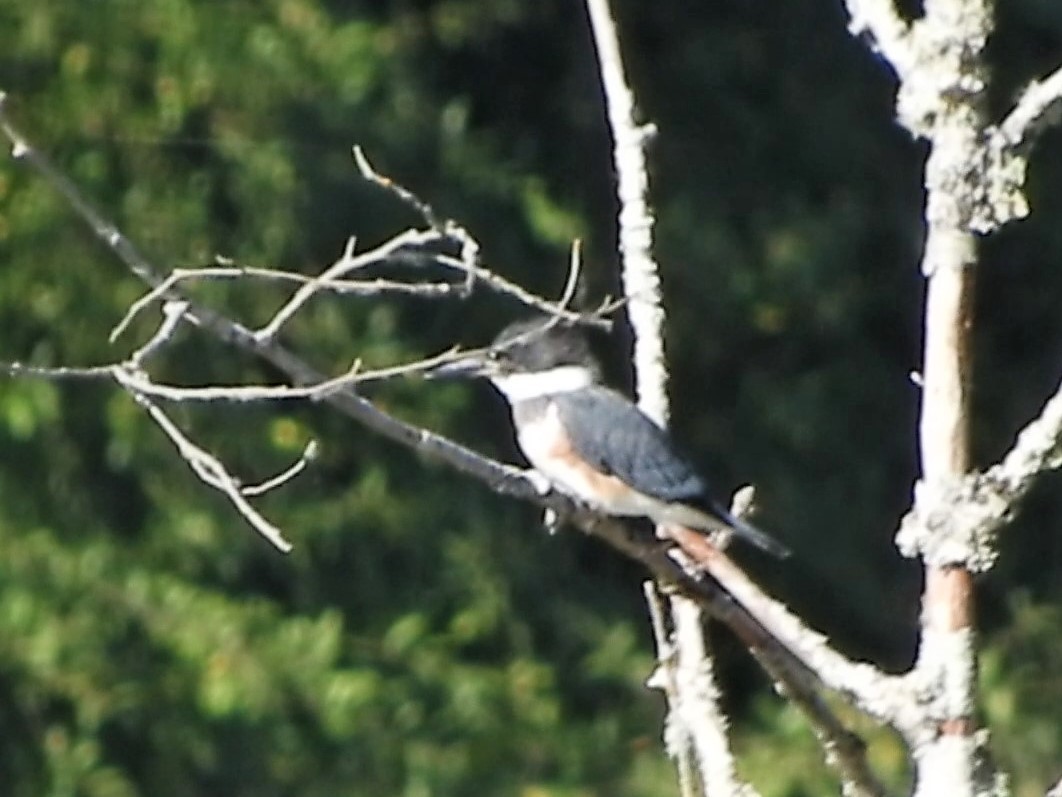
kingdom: Animalia
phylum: Chordata
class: Aves
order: Coraciiformes
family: Alcedinidae
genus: Megaceryle
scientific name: Megaceryle alcyon
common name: Belted kingfisher
